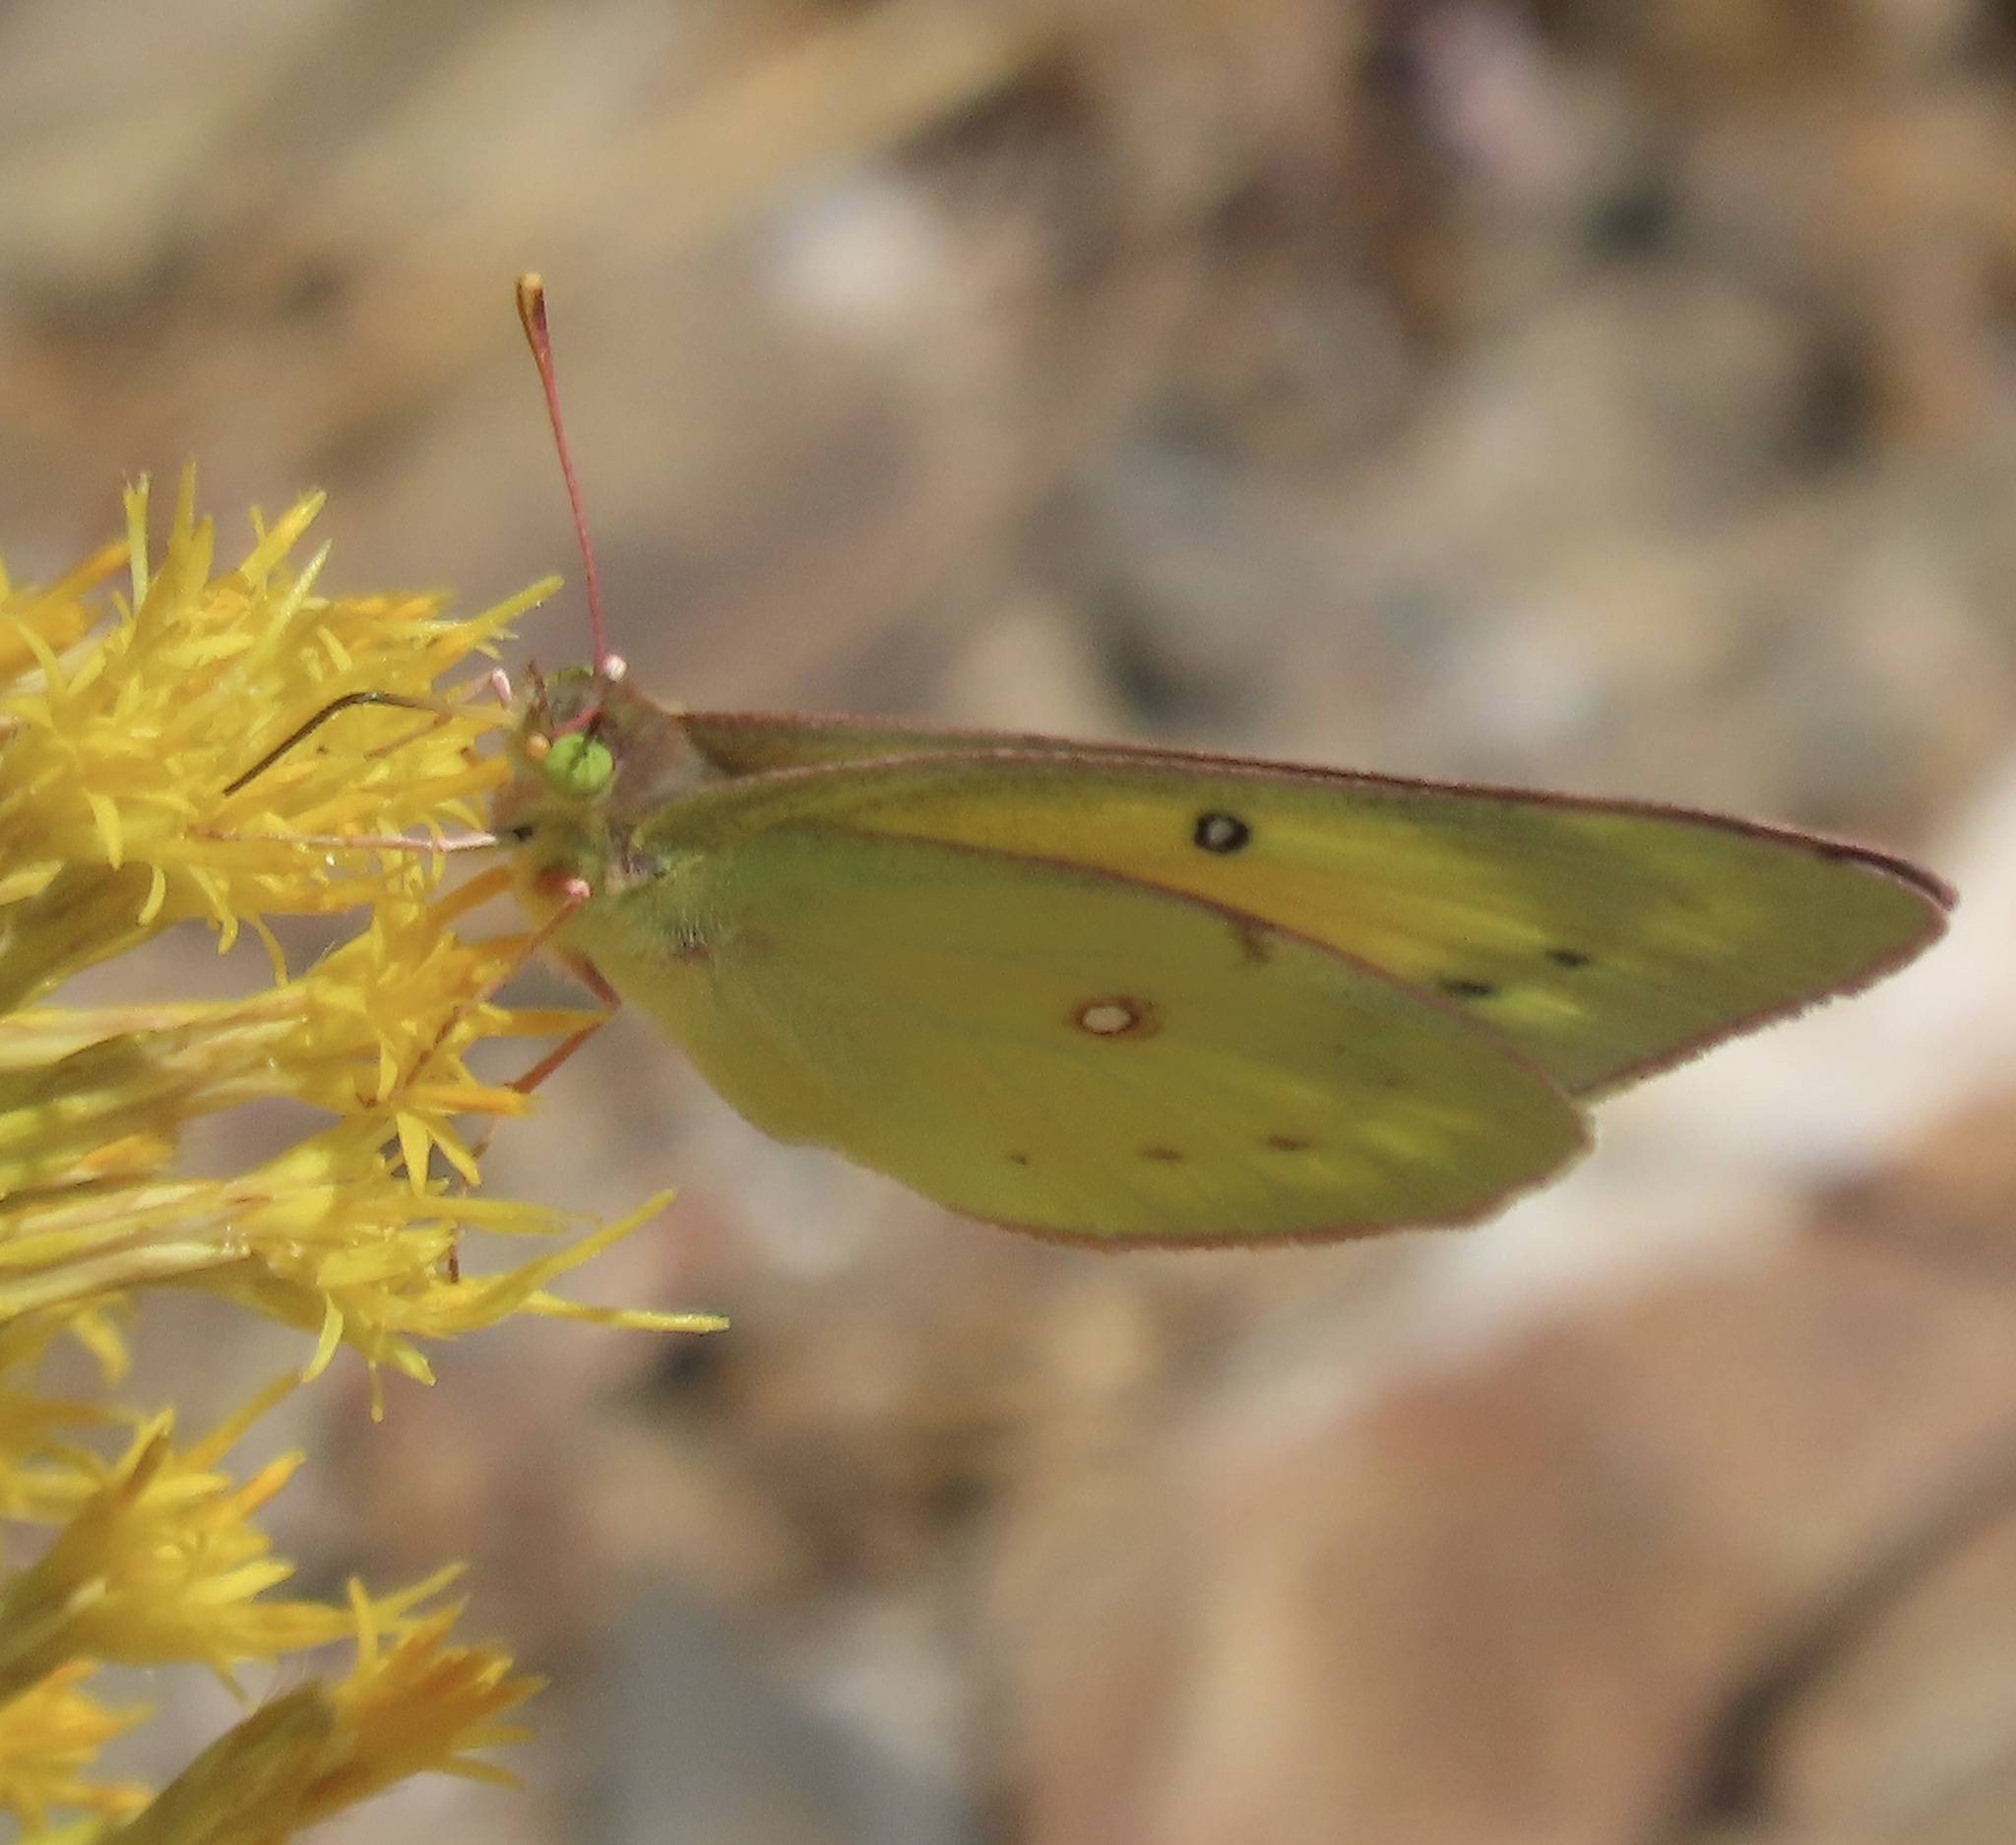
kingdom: Animalia
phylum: Arthropoda
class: Insecta
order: Lepidoptera
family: Pieridae
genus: Colias
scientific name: Colias eurytheme
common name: Alfalfa butterfly
